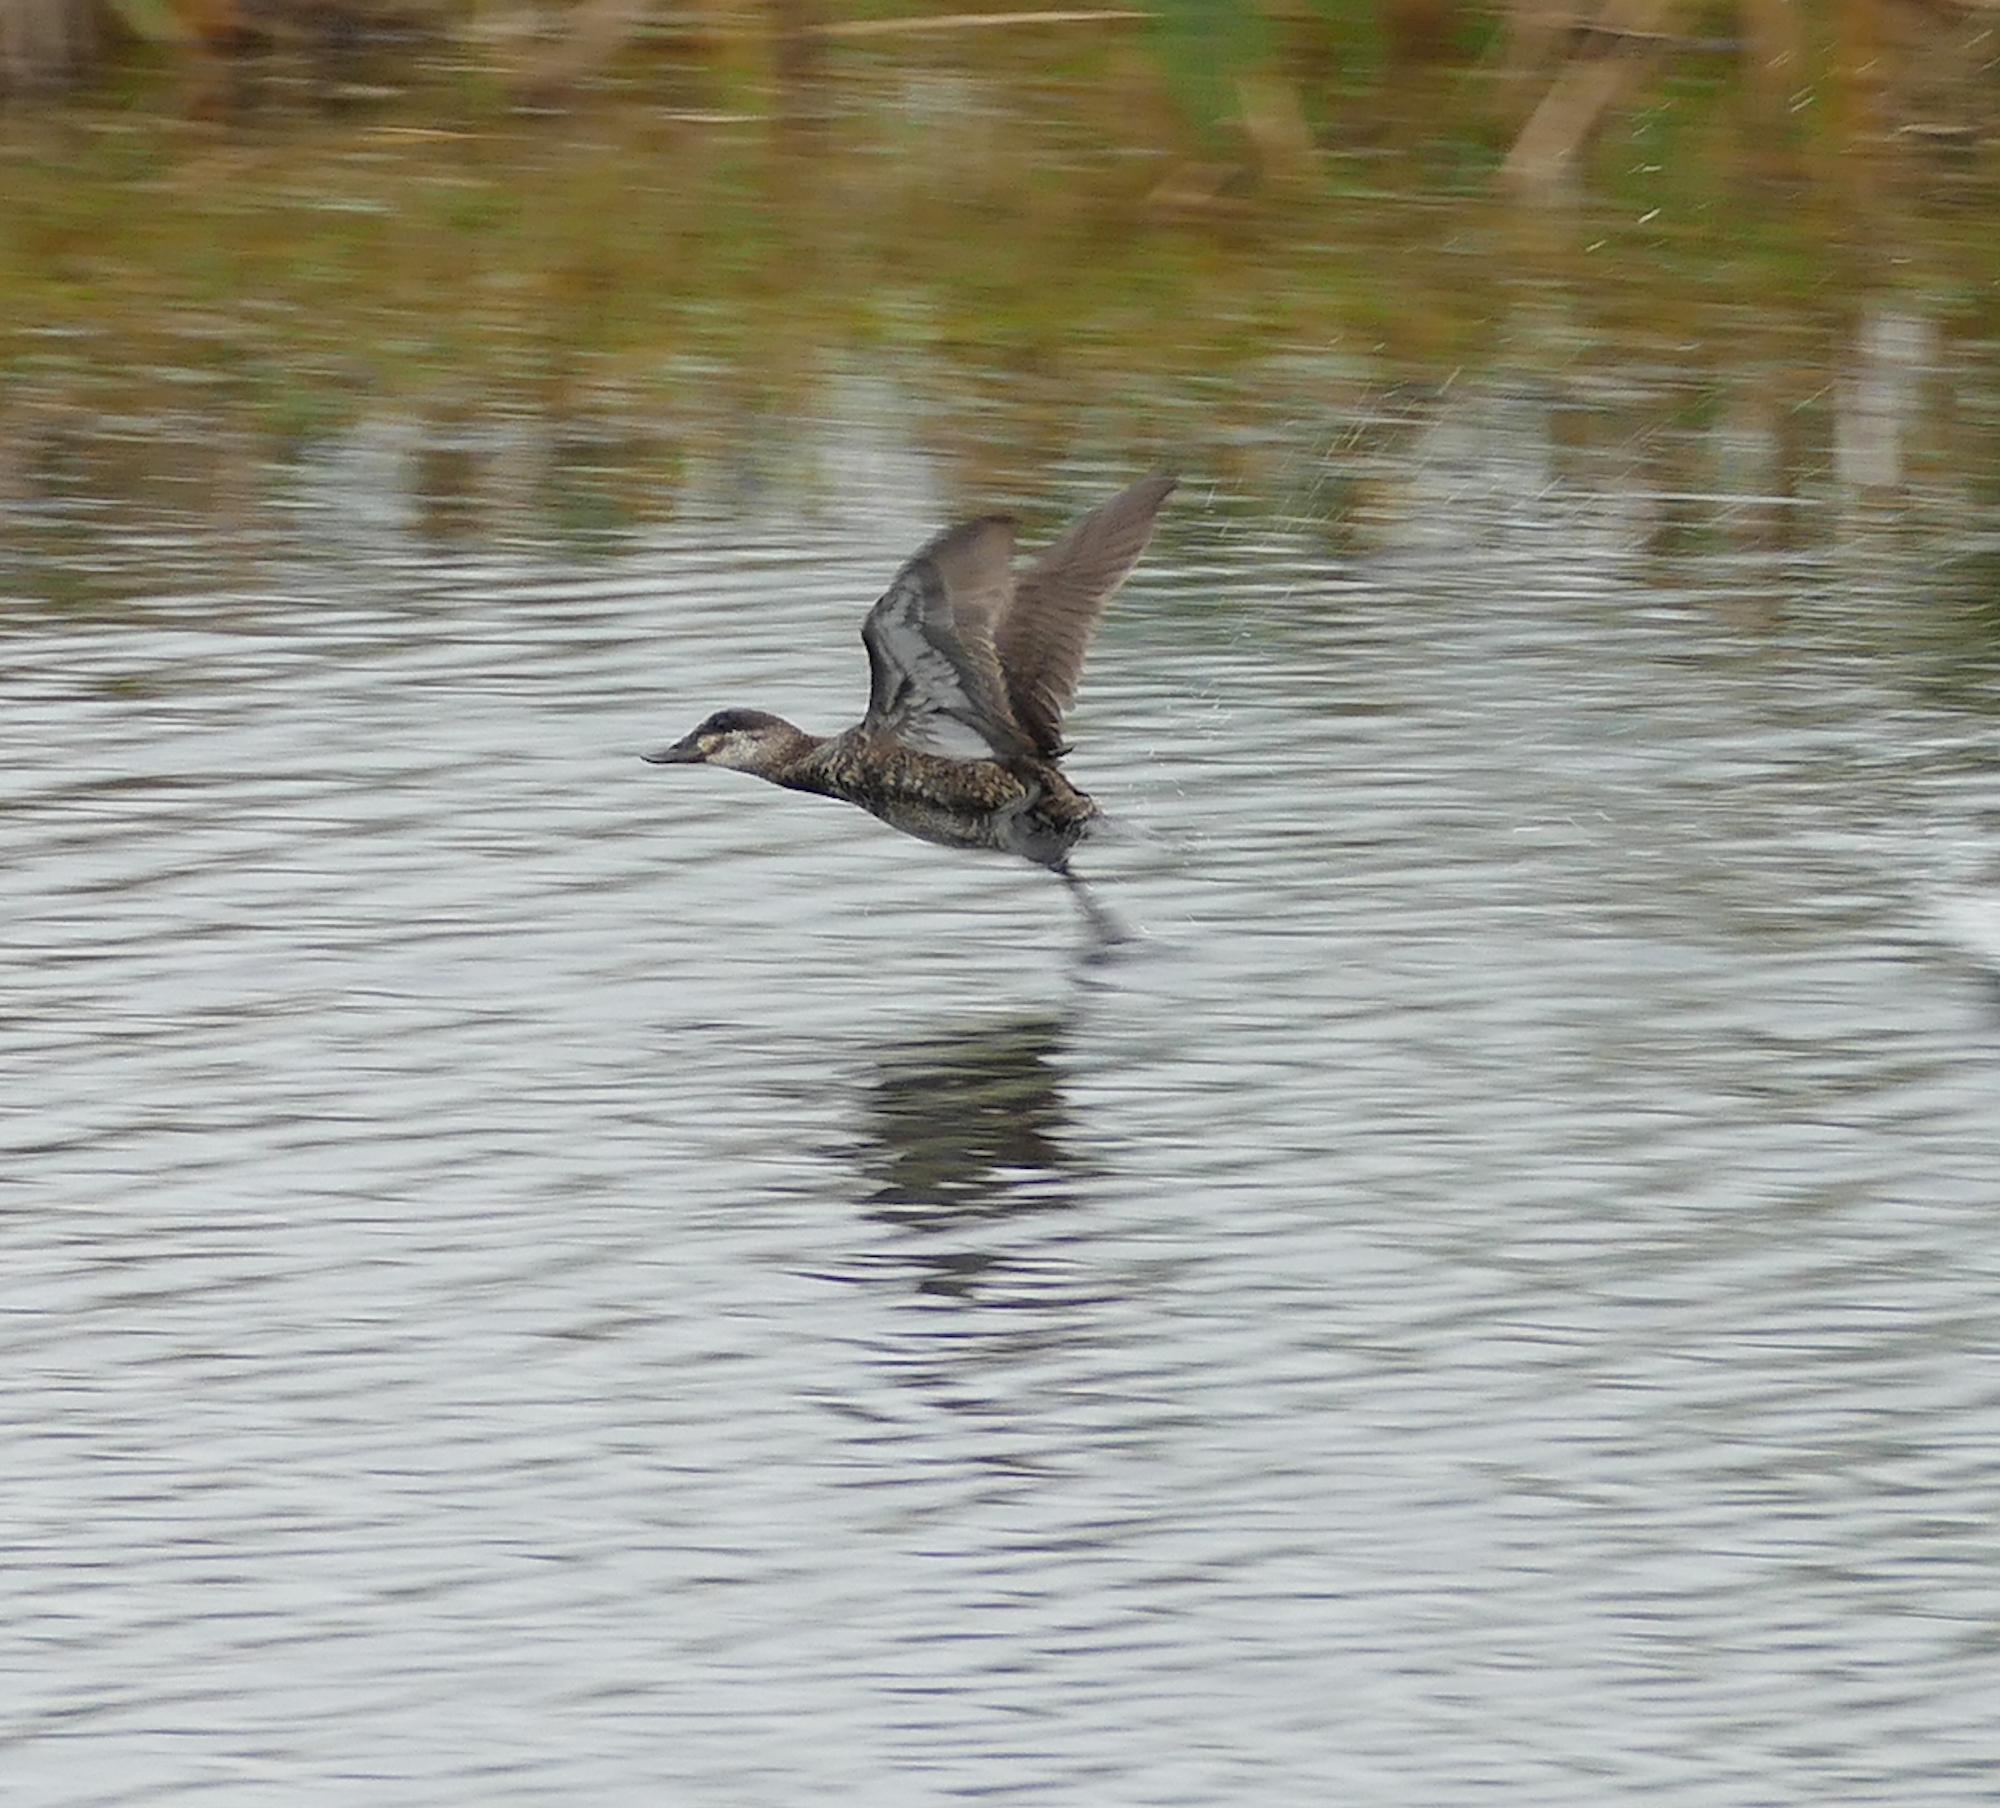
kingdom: Animalia
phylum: Chordata
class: Aves
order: Anseriformes
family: Anatidae
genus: Oxyura
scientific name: Oxyura jamaicensis
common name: Ruddy duck
